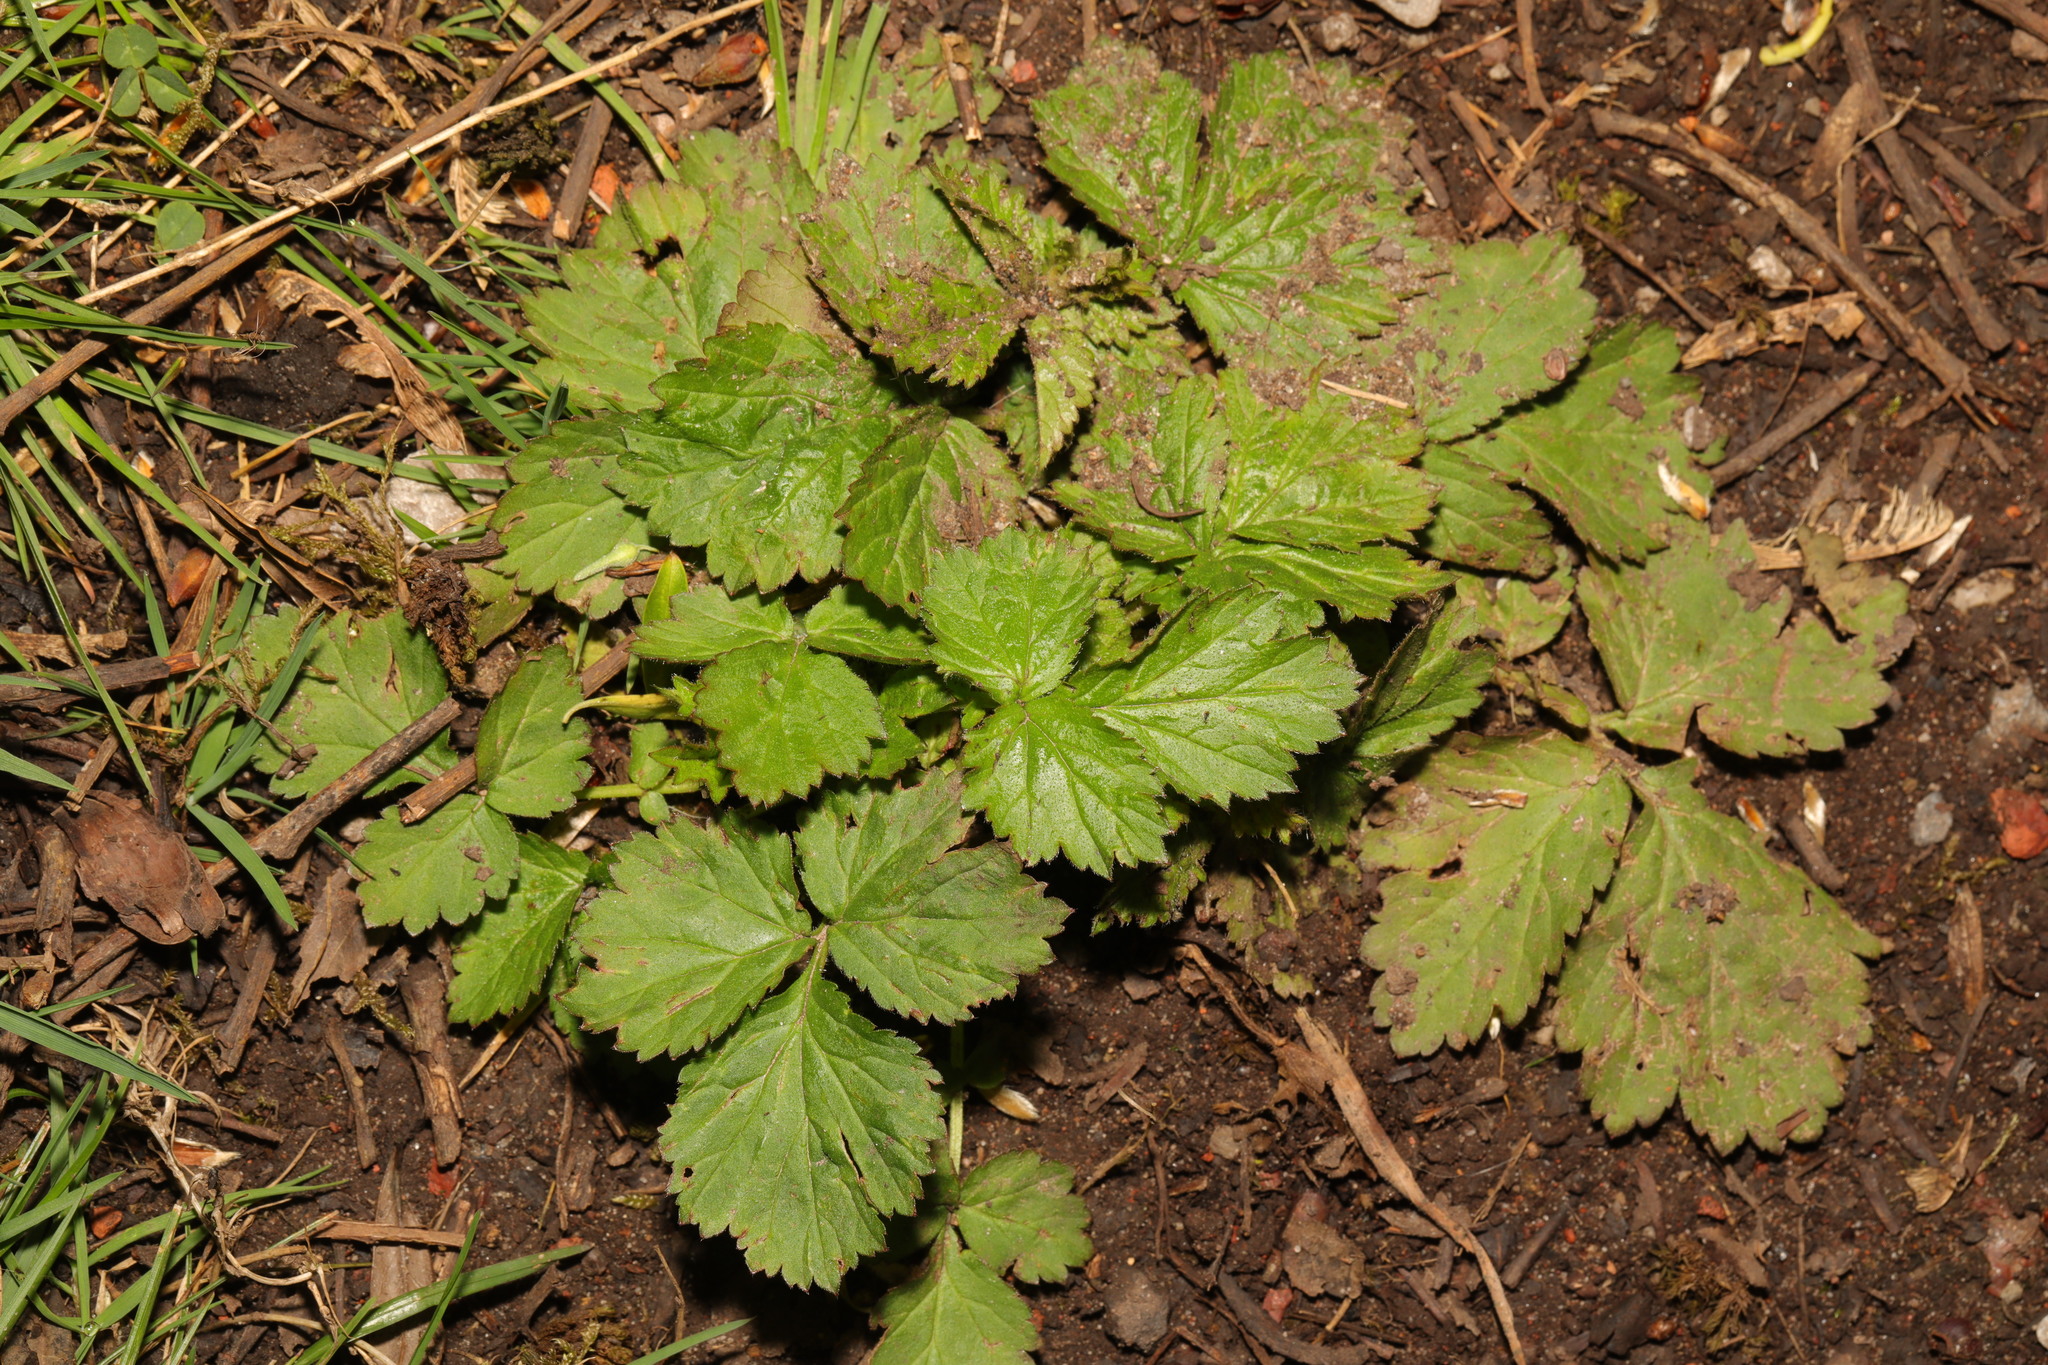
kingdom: Plantae
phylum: Tracheophyta
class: Magnoliopsida
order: Rosales
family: Rosaceae
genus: Geum
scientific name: Geum urbanum
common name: Wood avens
